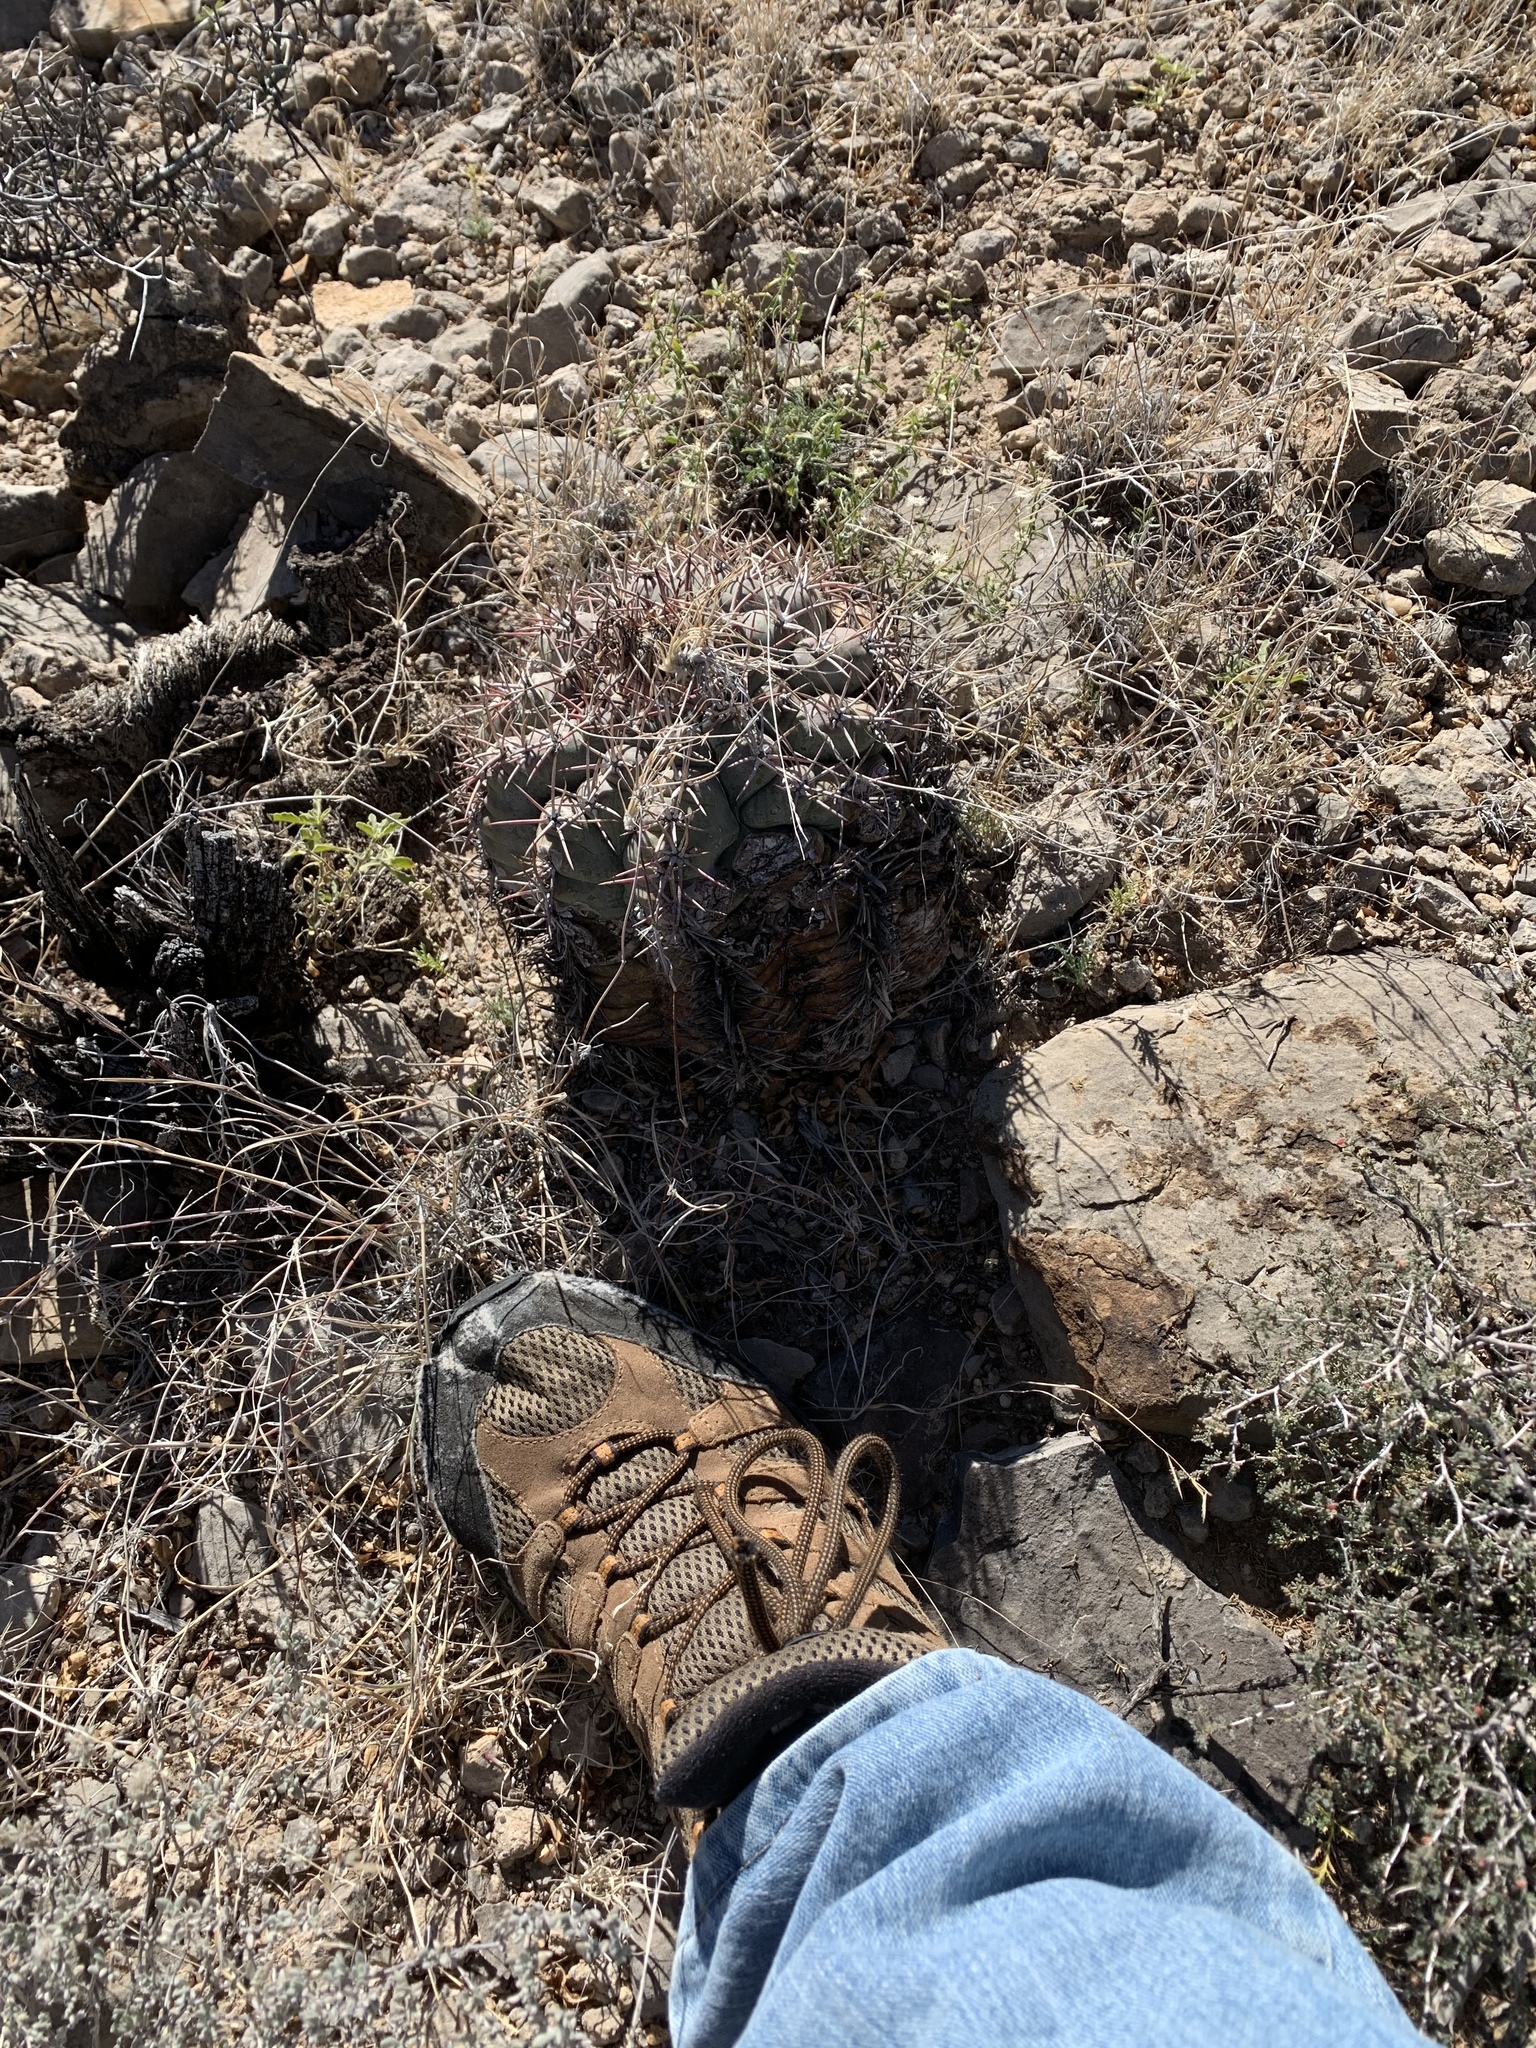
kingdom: Plantae
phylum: Tracheophyta
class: Magnoliopsida
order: Caryophyllales
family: Cactaceae
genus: Echinocactus
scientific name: Echinocactus horizonthalonius
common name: Devilshead
